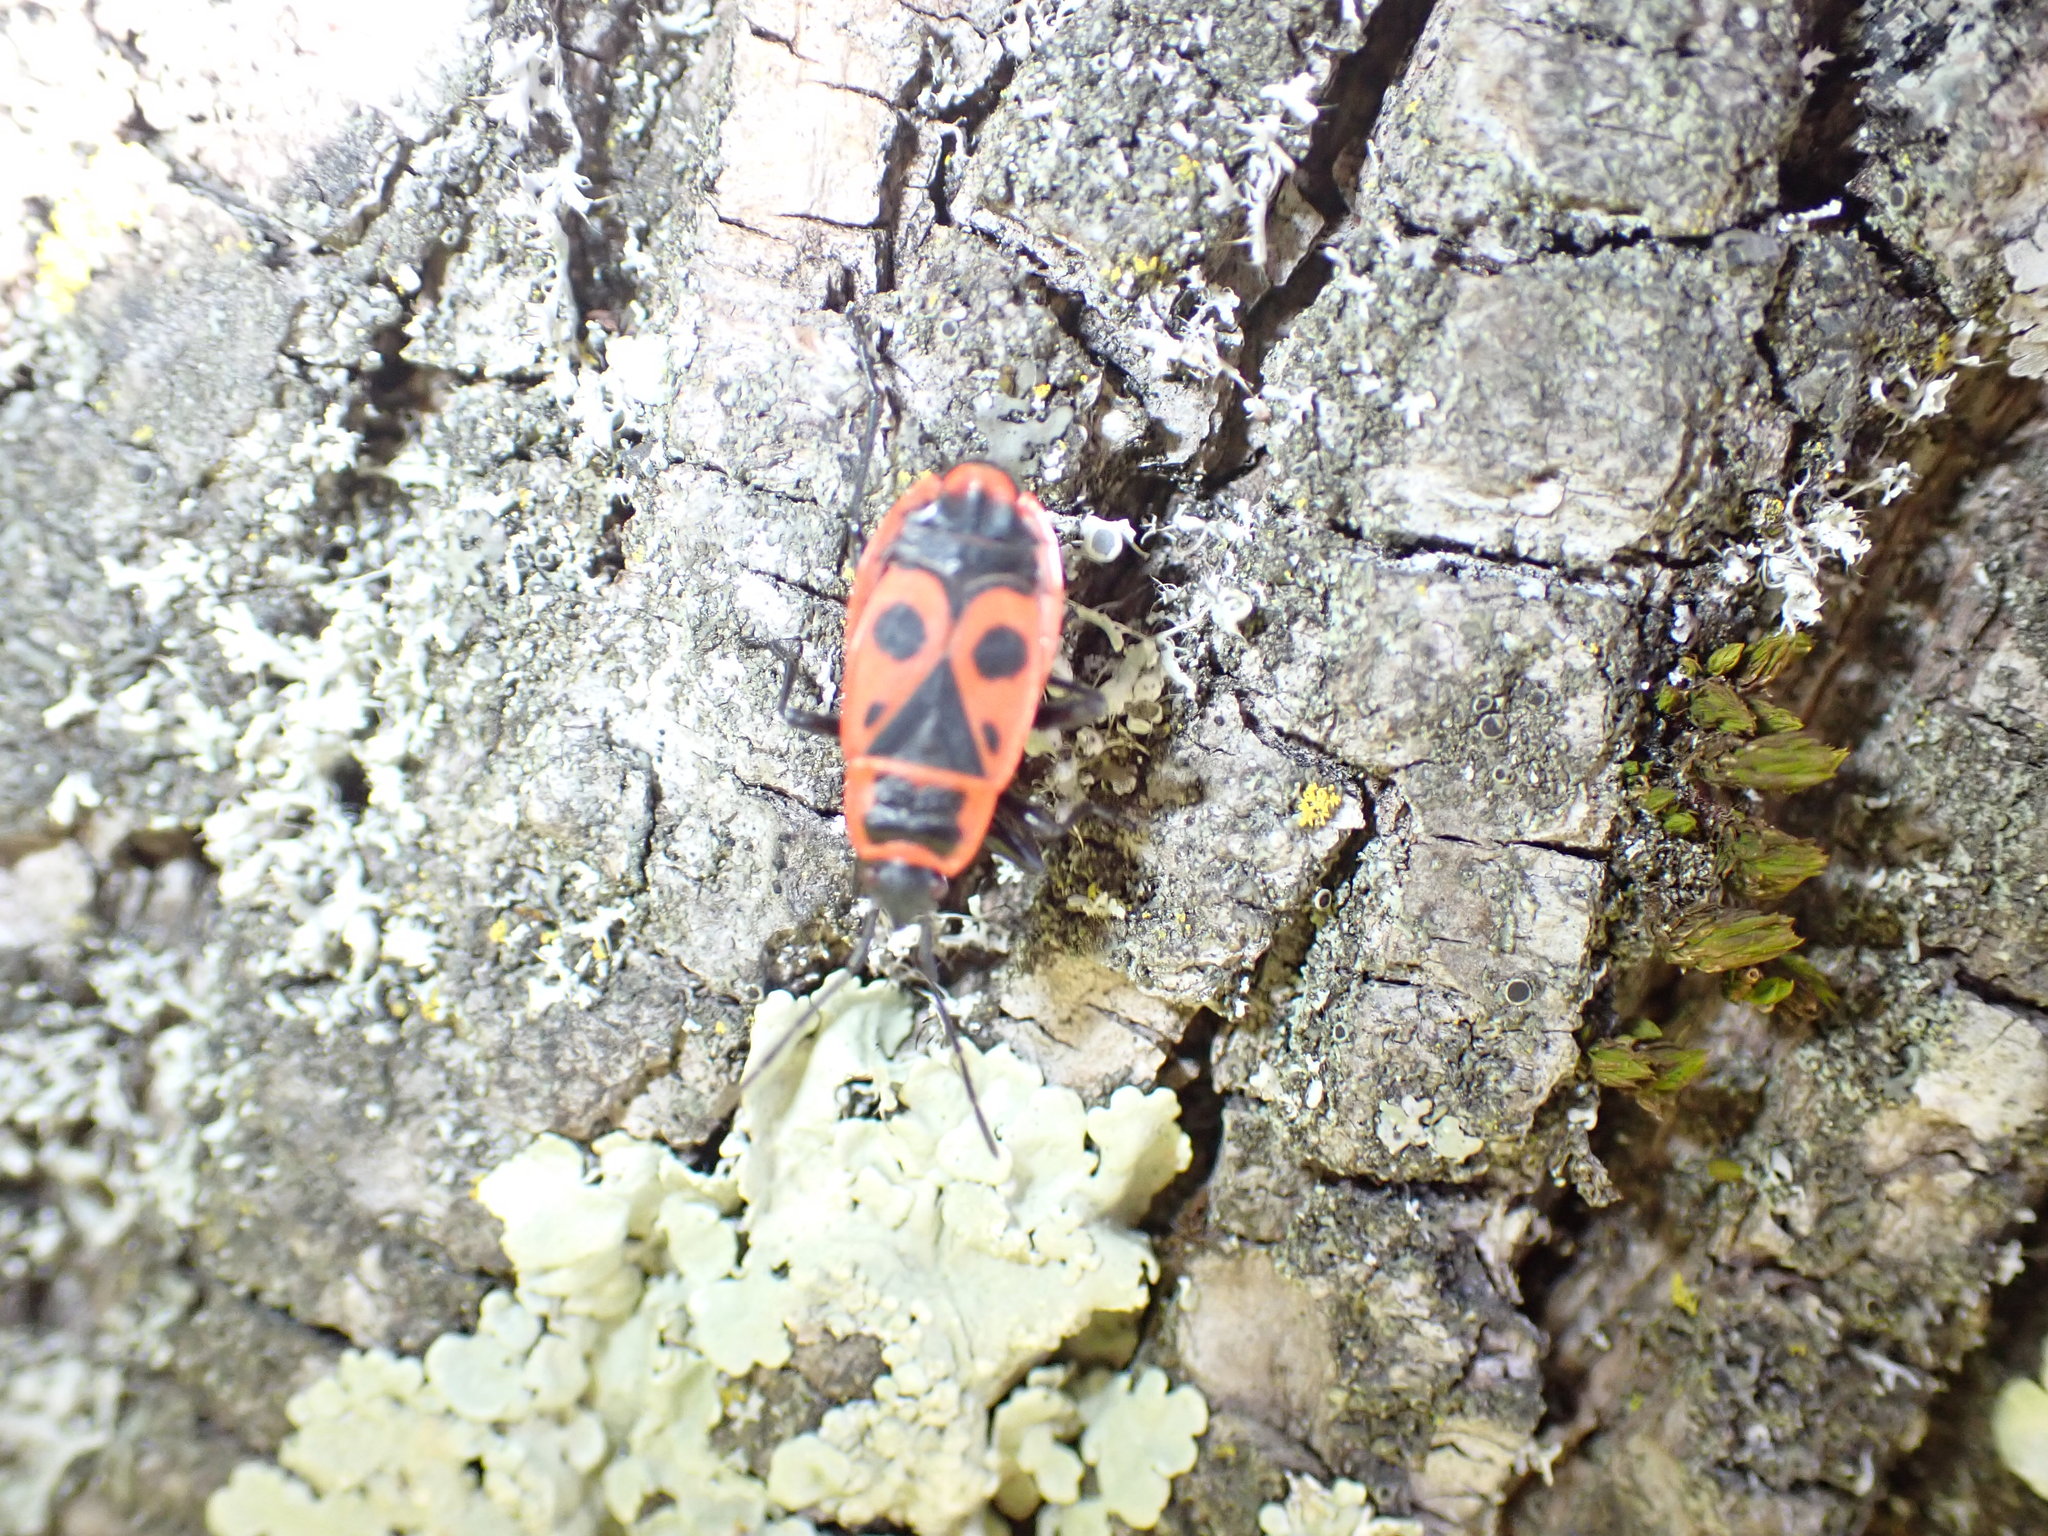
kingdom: Animalia
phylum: Arthropoda
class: Insecta
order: Hemiptera
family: Pyrrhocoridae
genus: Pyrrhocoris
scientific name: Pyrrhocoris apterus
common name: Firebug
